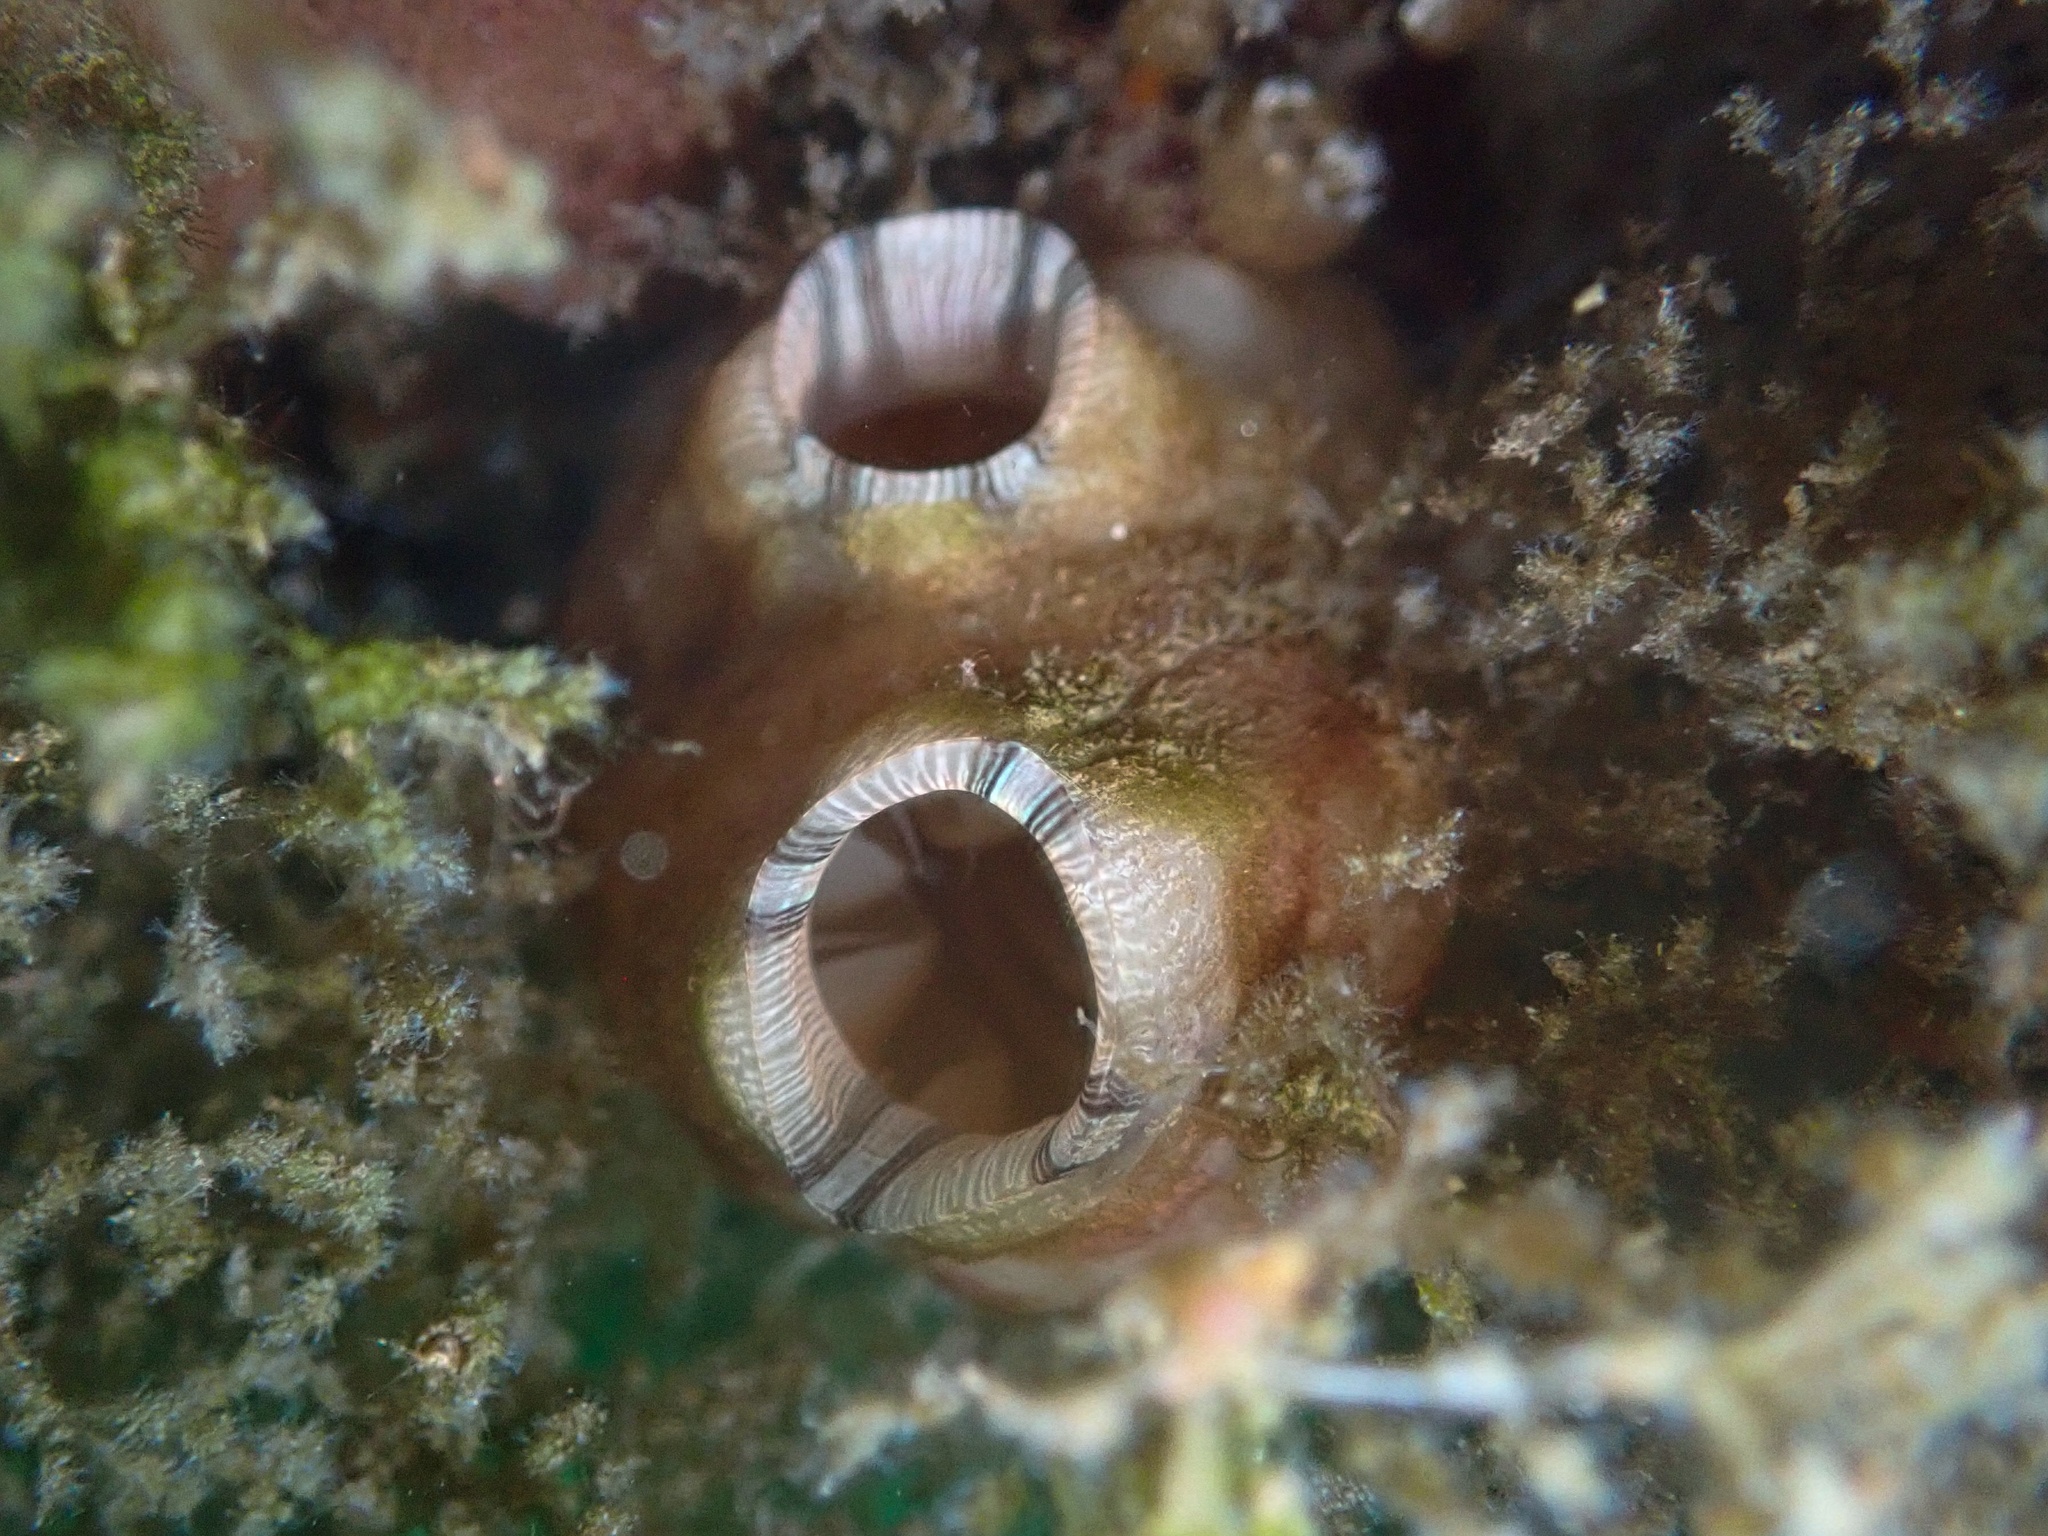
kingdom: Animalia
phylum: Chordata
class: Ascidiacea
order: Stolidobranchia
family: Styelidae
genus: Styela
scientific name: Styela plicata
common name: Pleated tunicate
